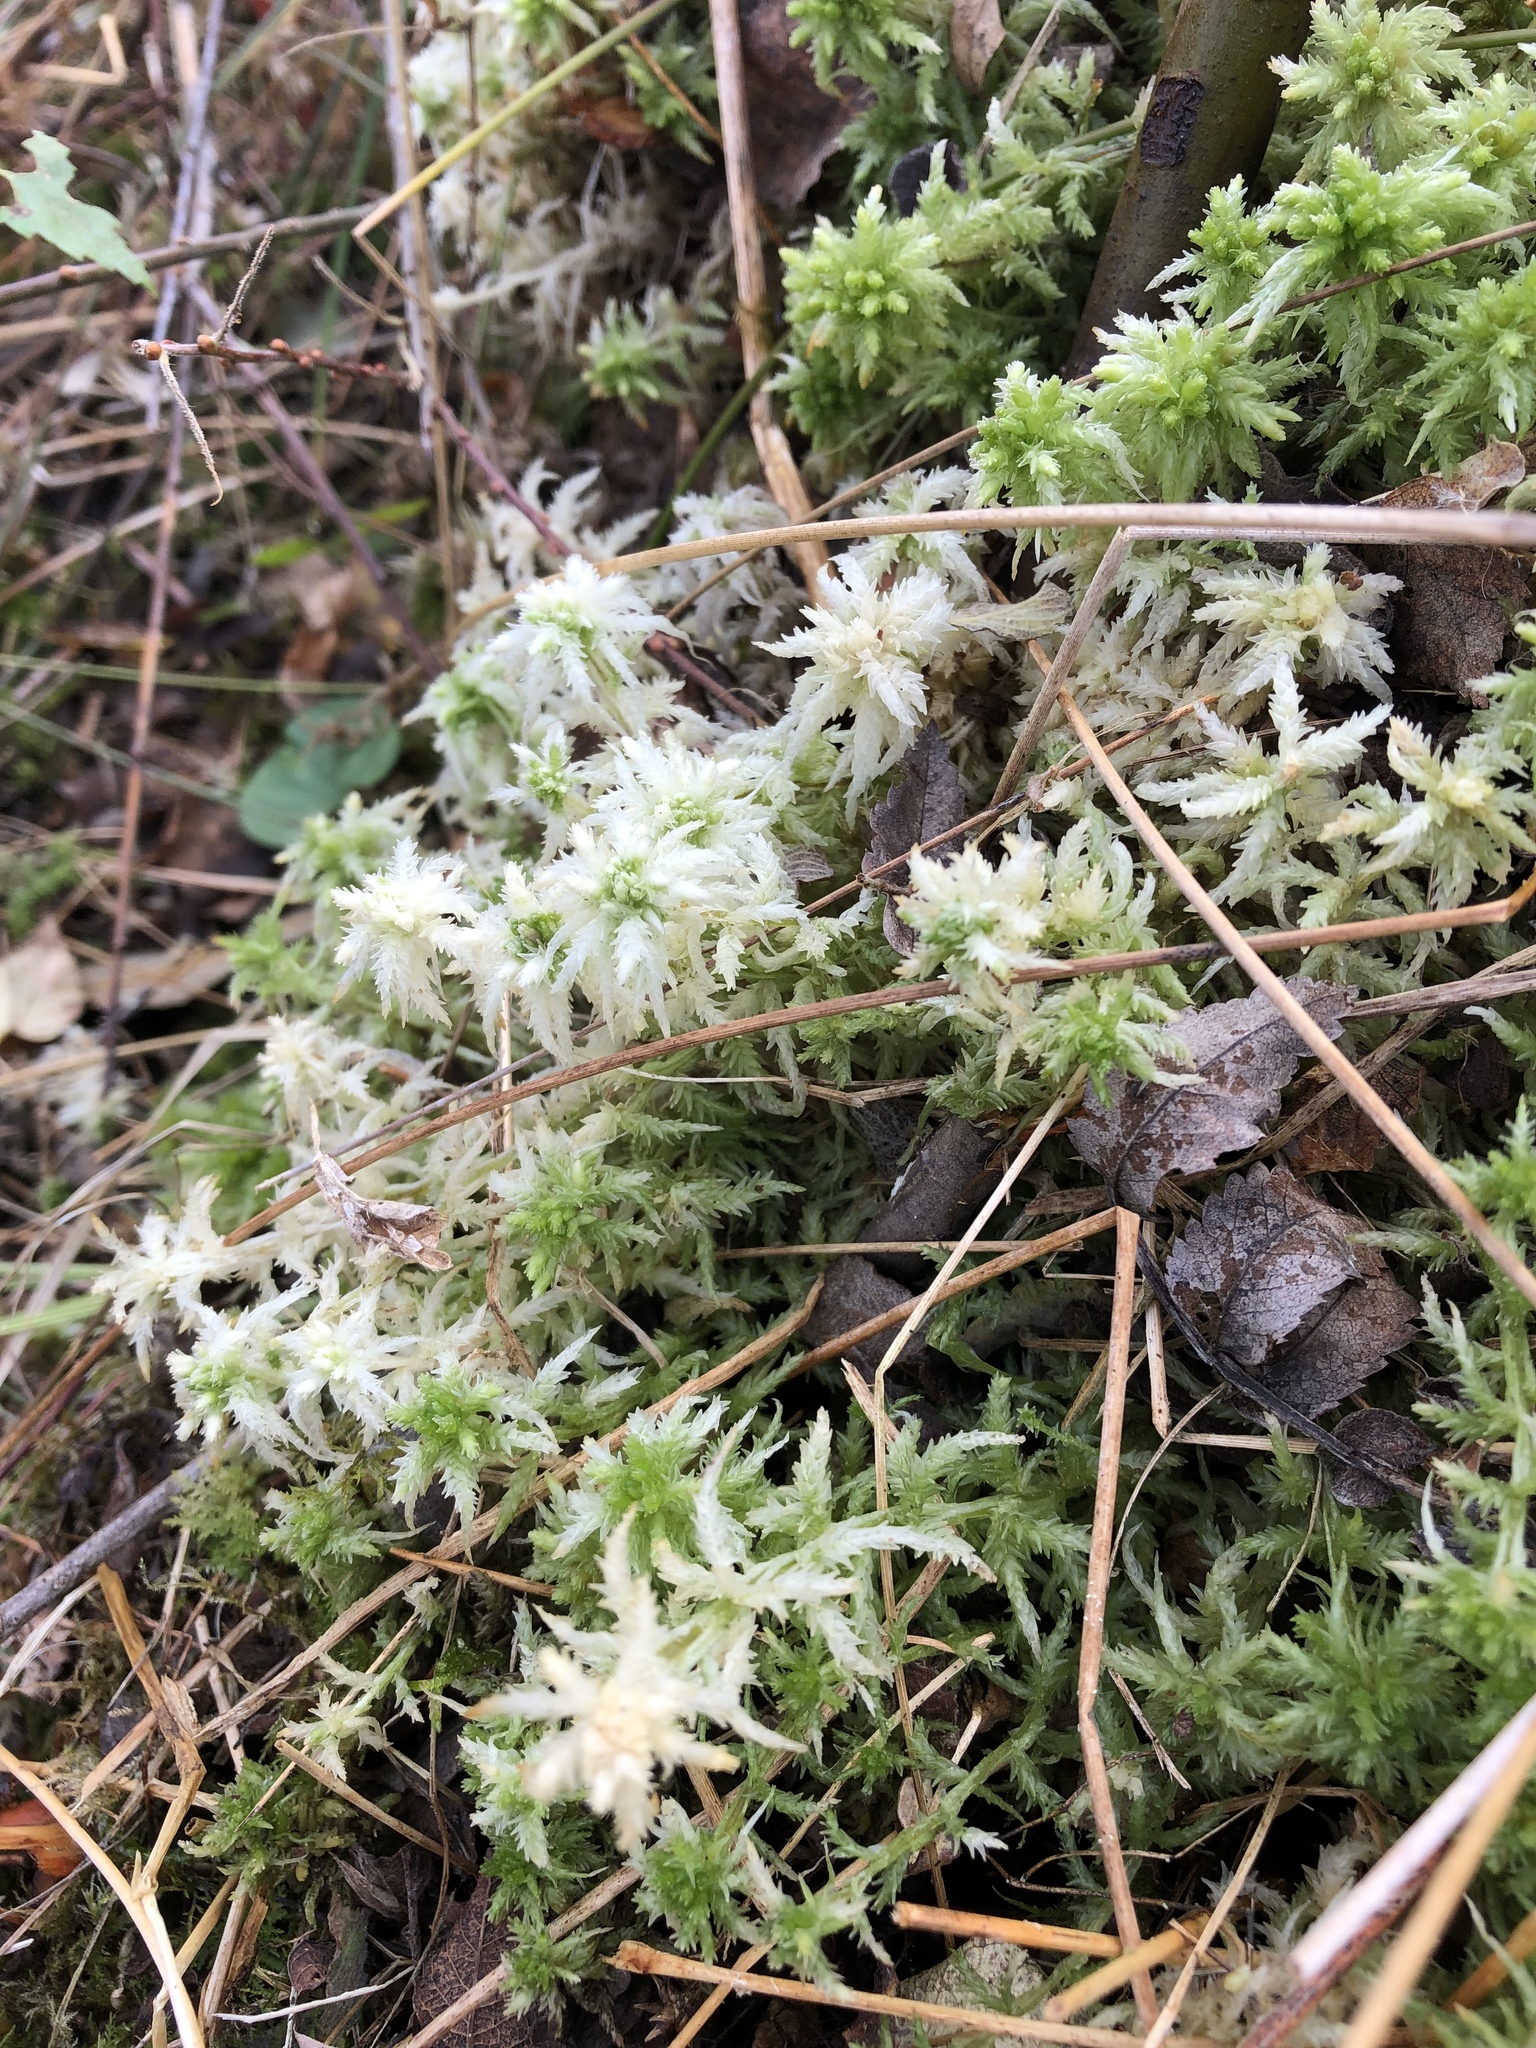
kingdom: Plantae
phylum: Bryophyta
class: Sphagnopsida
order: Sphagnales
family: Sphagnaceae
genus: Sphagnum
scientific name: Sphagnum squarrosum
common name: Shaggy peat moss
